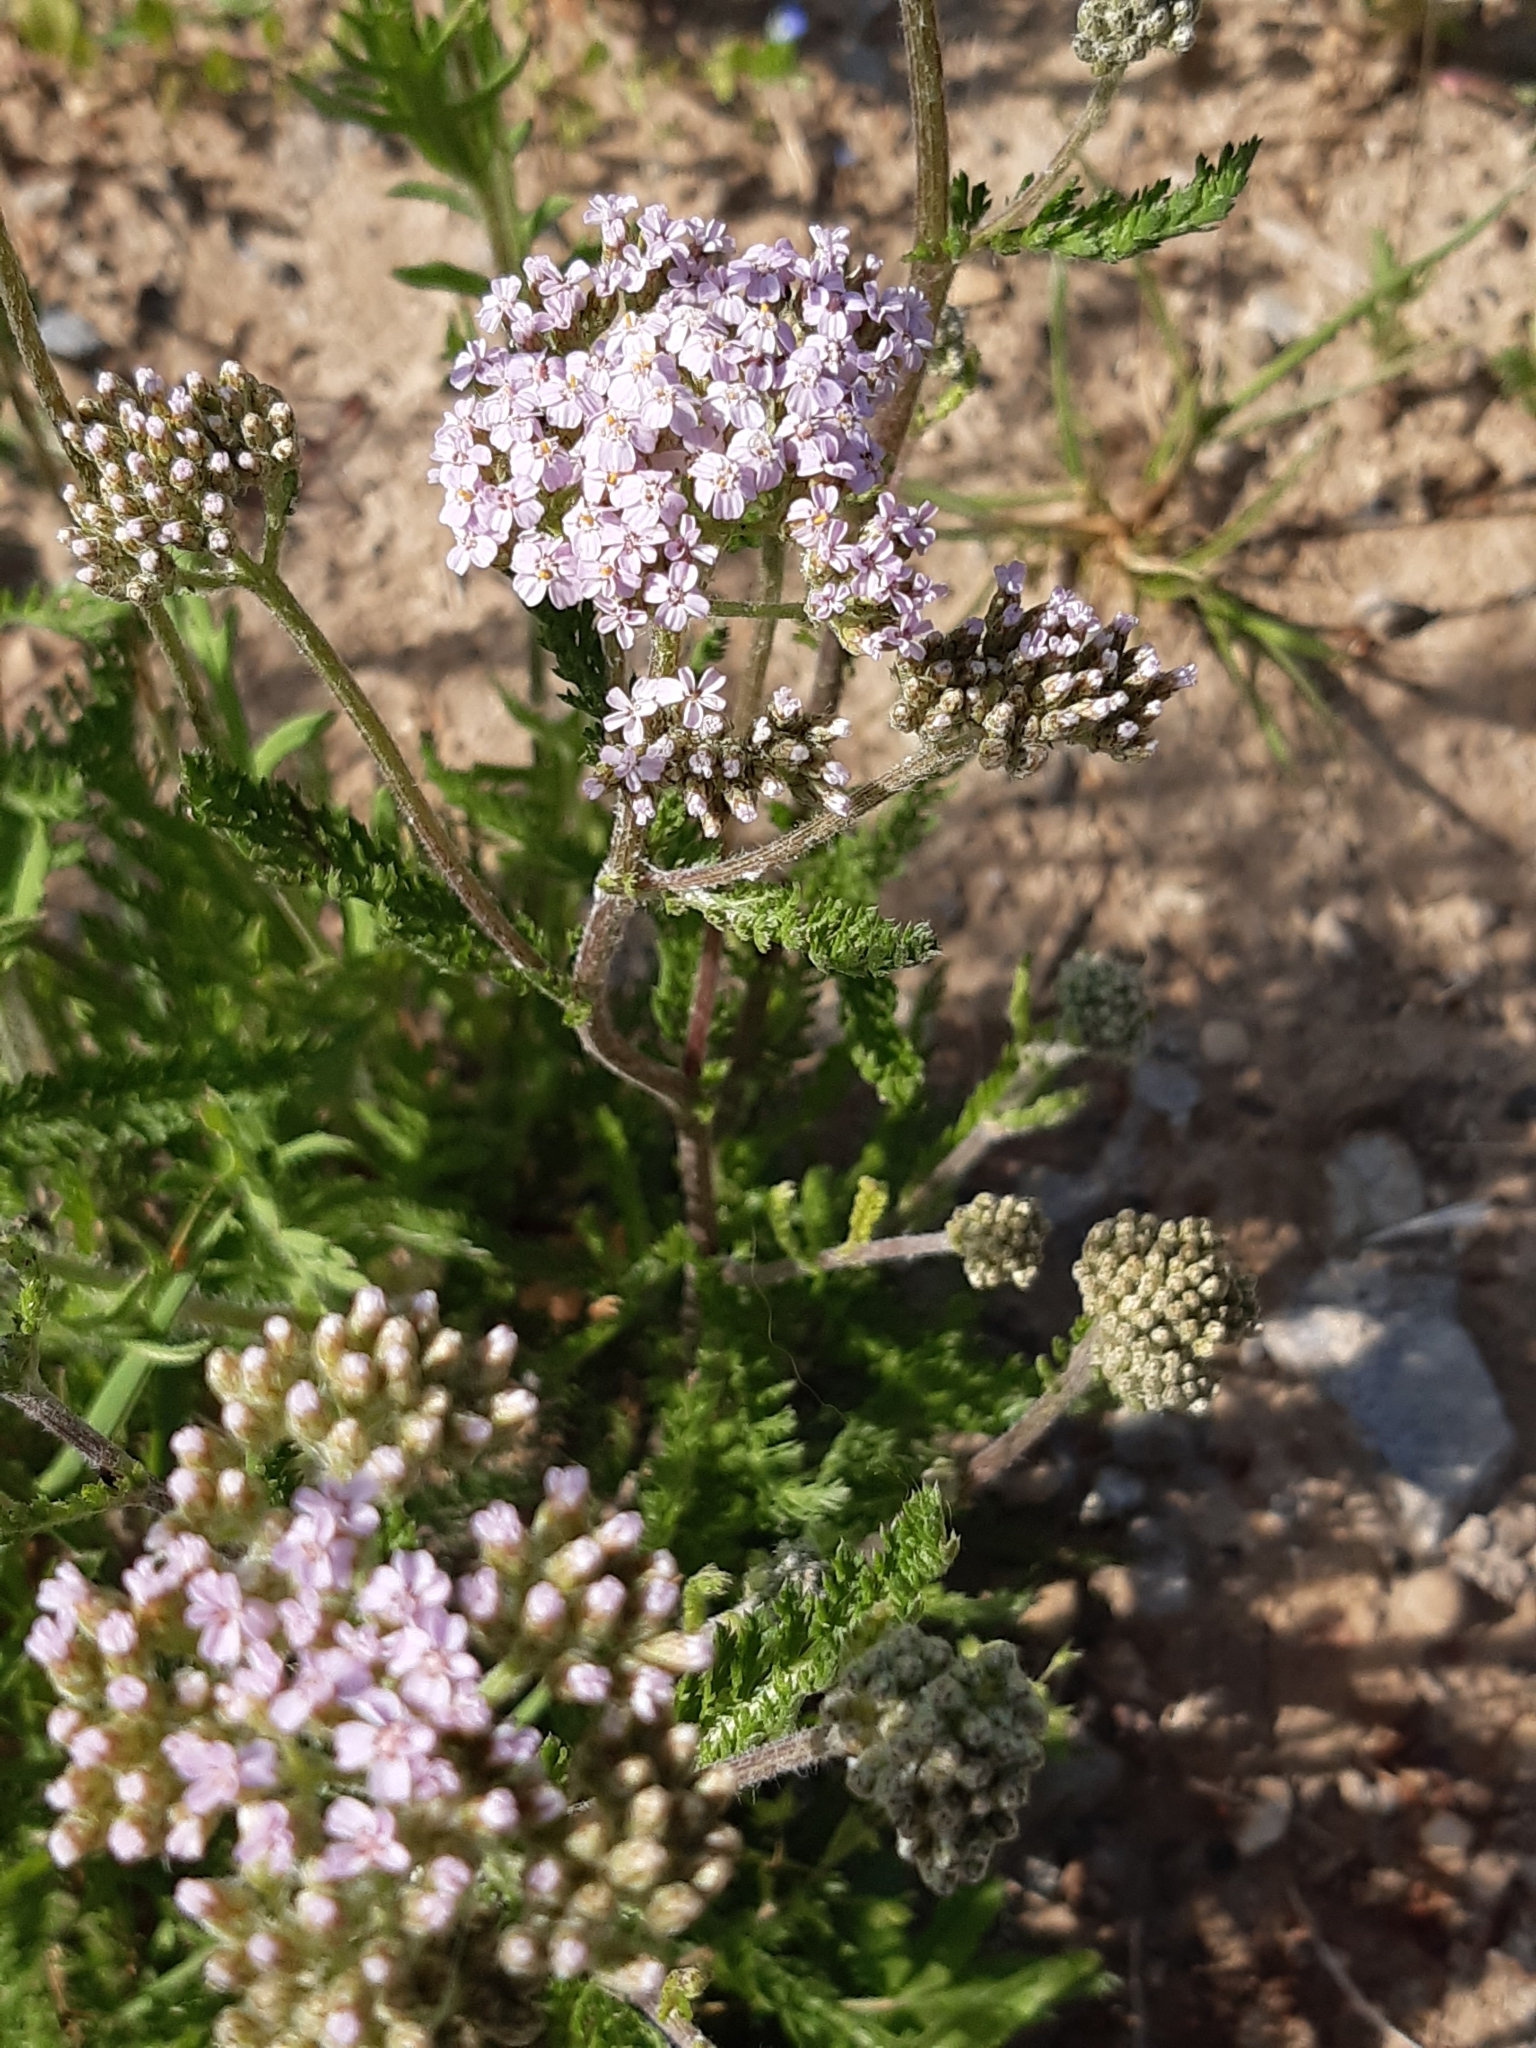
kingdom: Plantae
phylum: Tracheophyta
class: Magnoliopsida
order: Asterales
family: Asteraceae
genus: Achillea
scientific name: Achillea millefolium
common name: Yarrow
